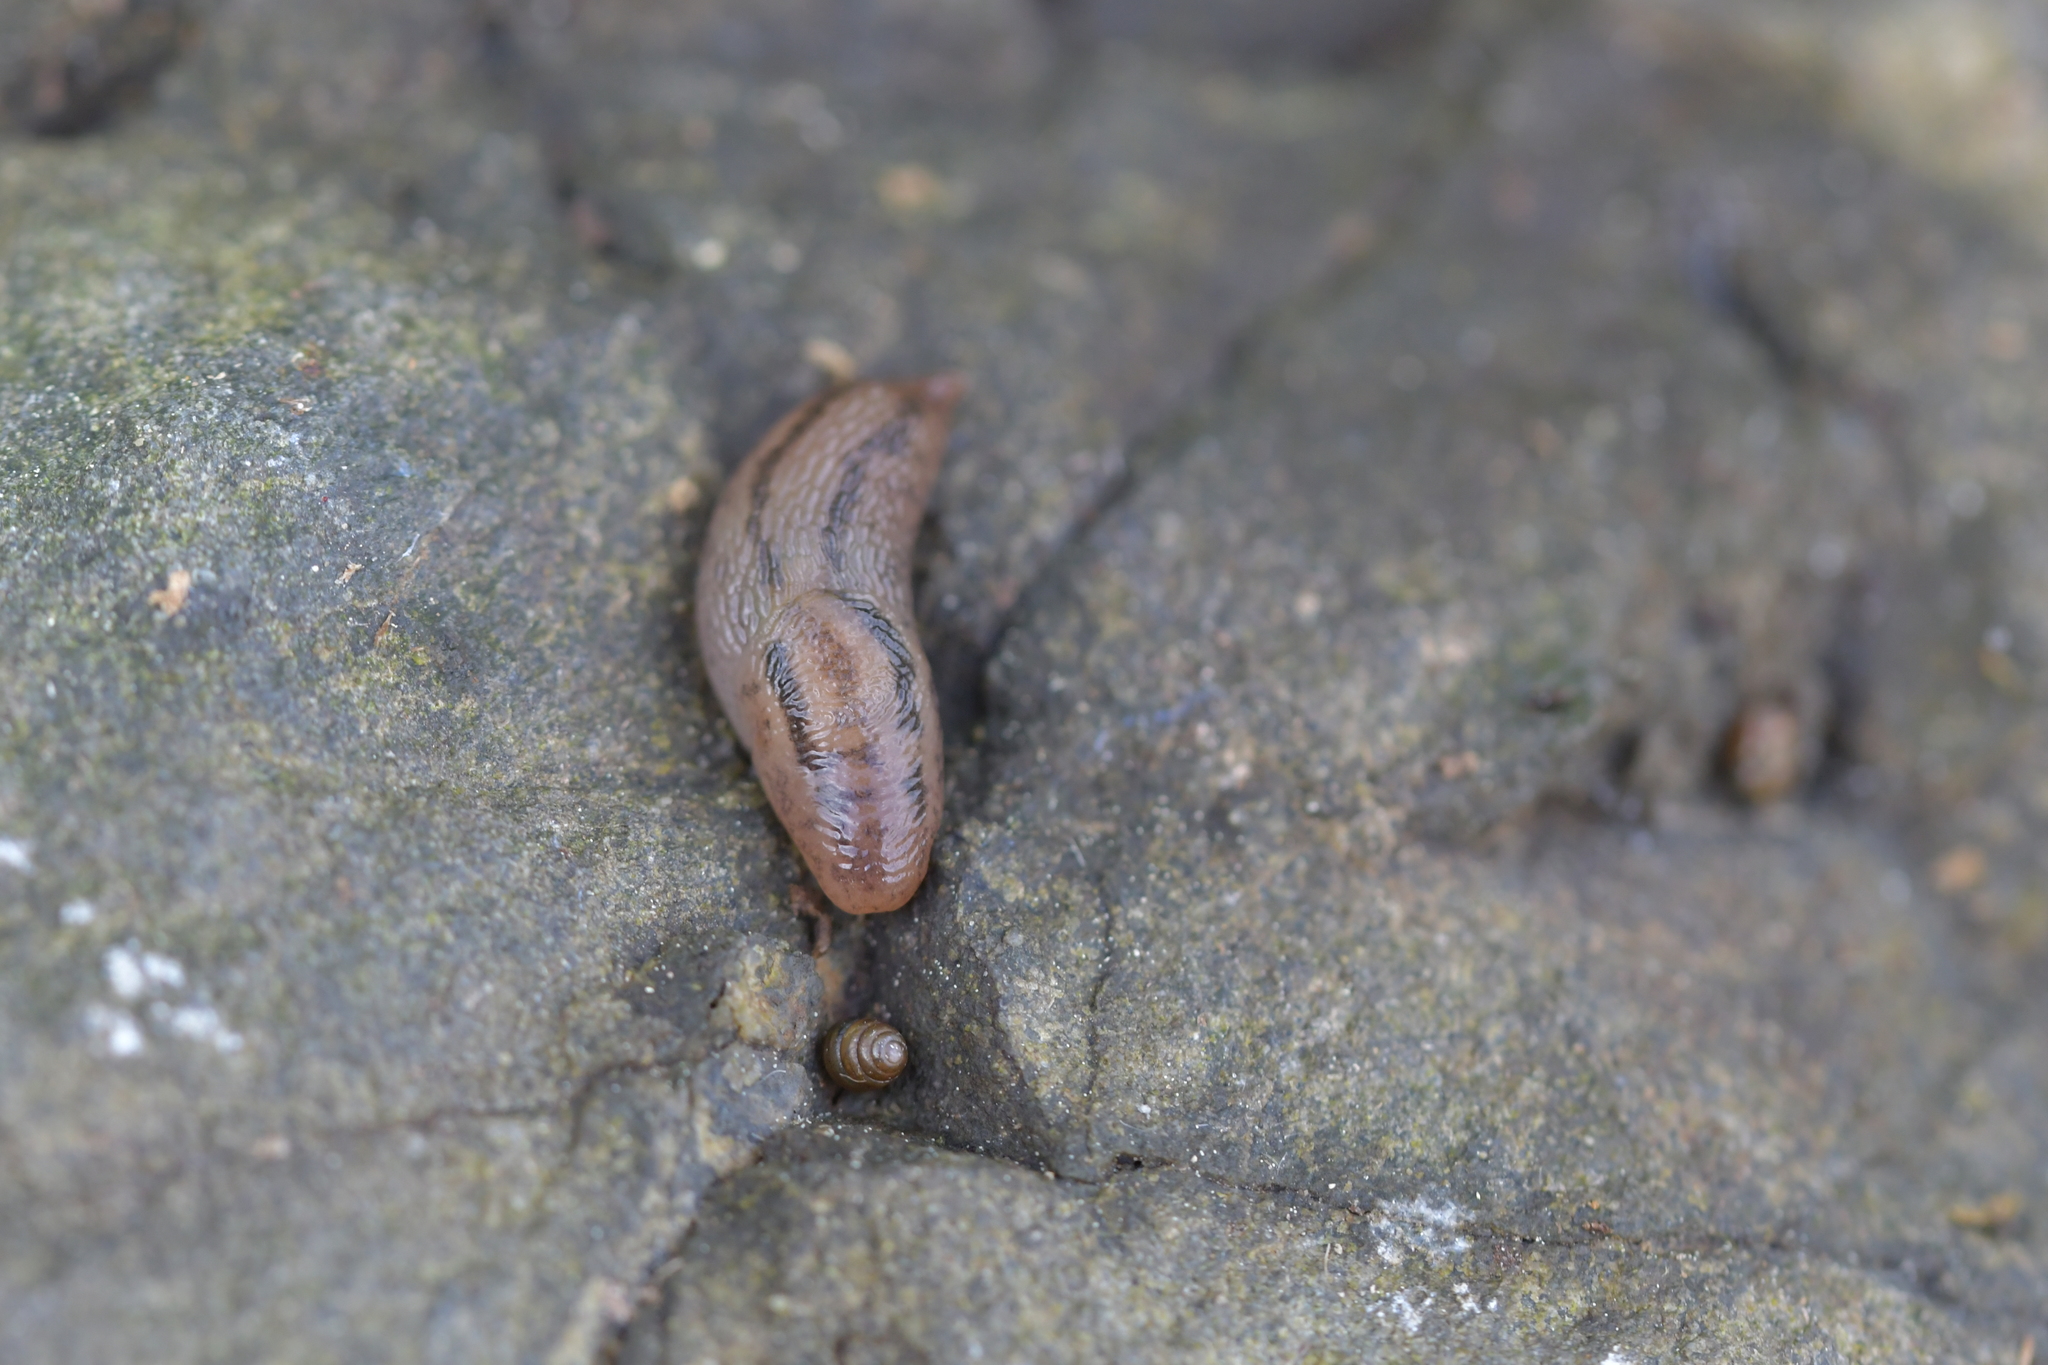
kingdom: Animalia
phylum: Mollusca
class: Gastropoda
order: Stylommatophora
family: Limacidae
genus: Ambigolimax
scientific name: Ambigolimax
